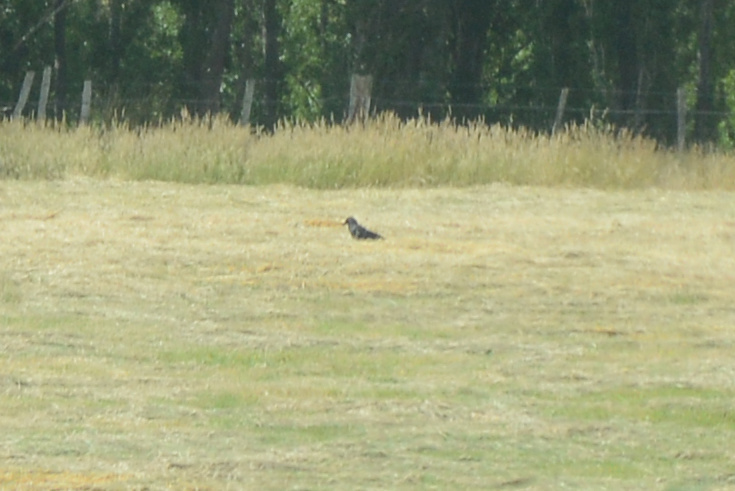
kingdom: Animalia
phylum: Chordata
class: Aves
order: Passeriformes
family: Corvidae
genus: Corvus
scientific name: Corvus tasmanicus
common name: Forest raven
